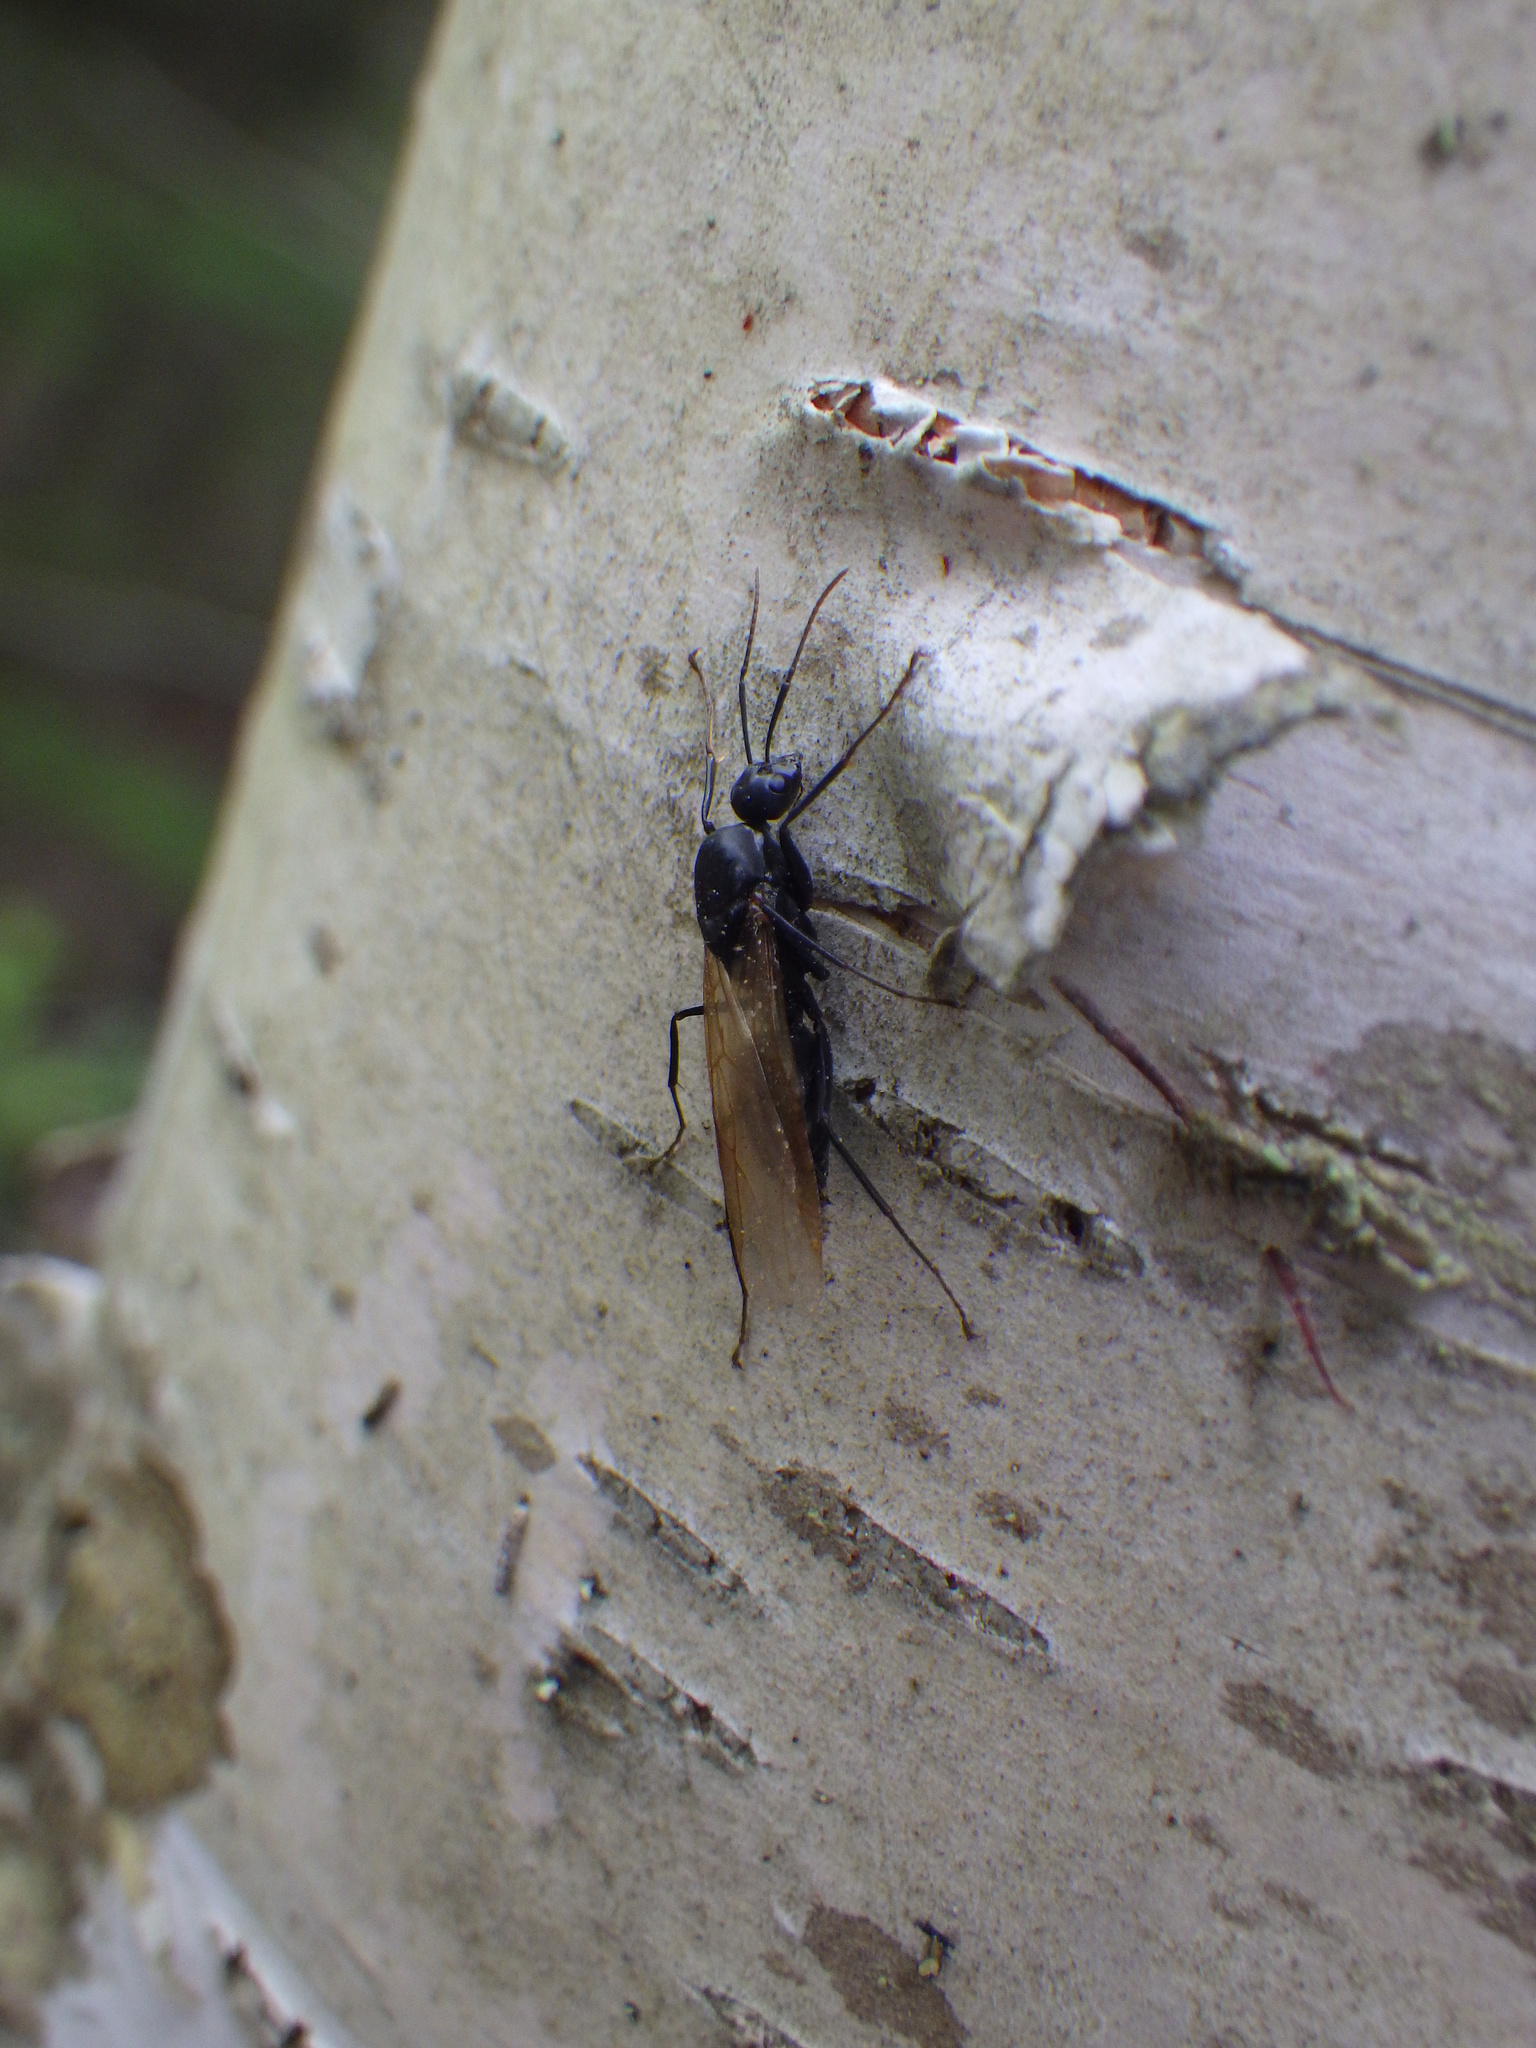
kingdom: Animalia
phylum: Arthropoda
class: Insecta
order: Hymenoptera
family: Formicidae
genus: Camponotus
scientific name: Camponotus pennsylvanicus
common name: Black carpenter ant
